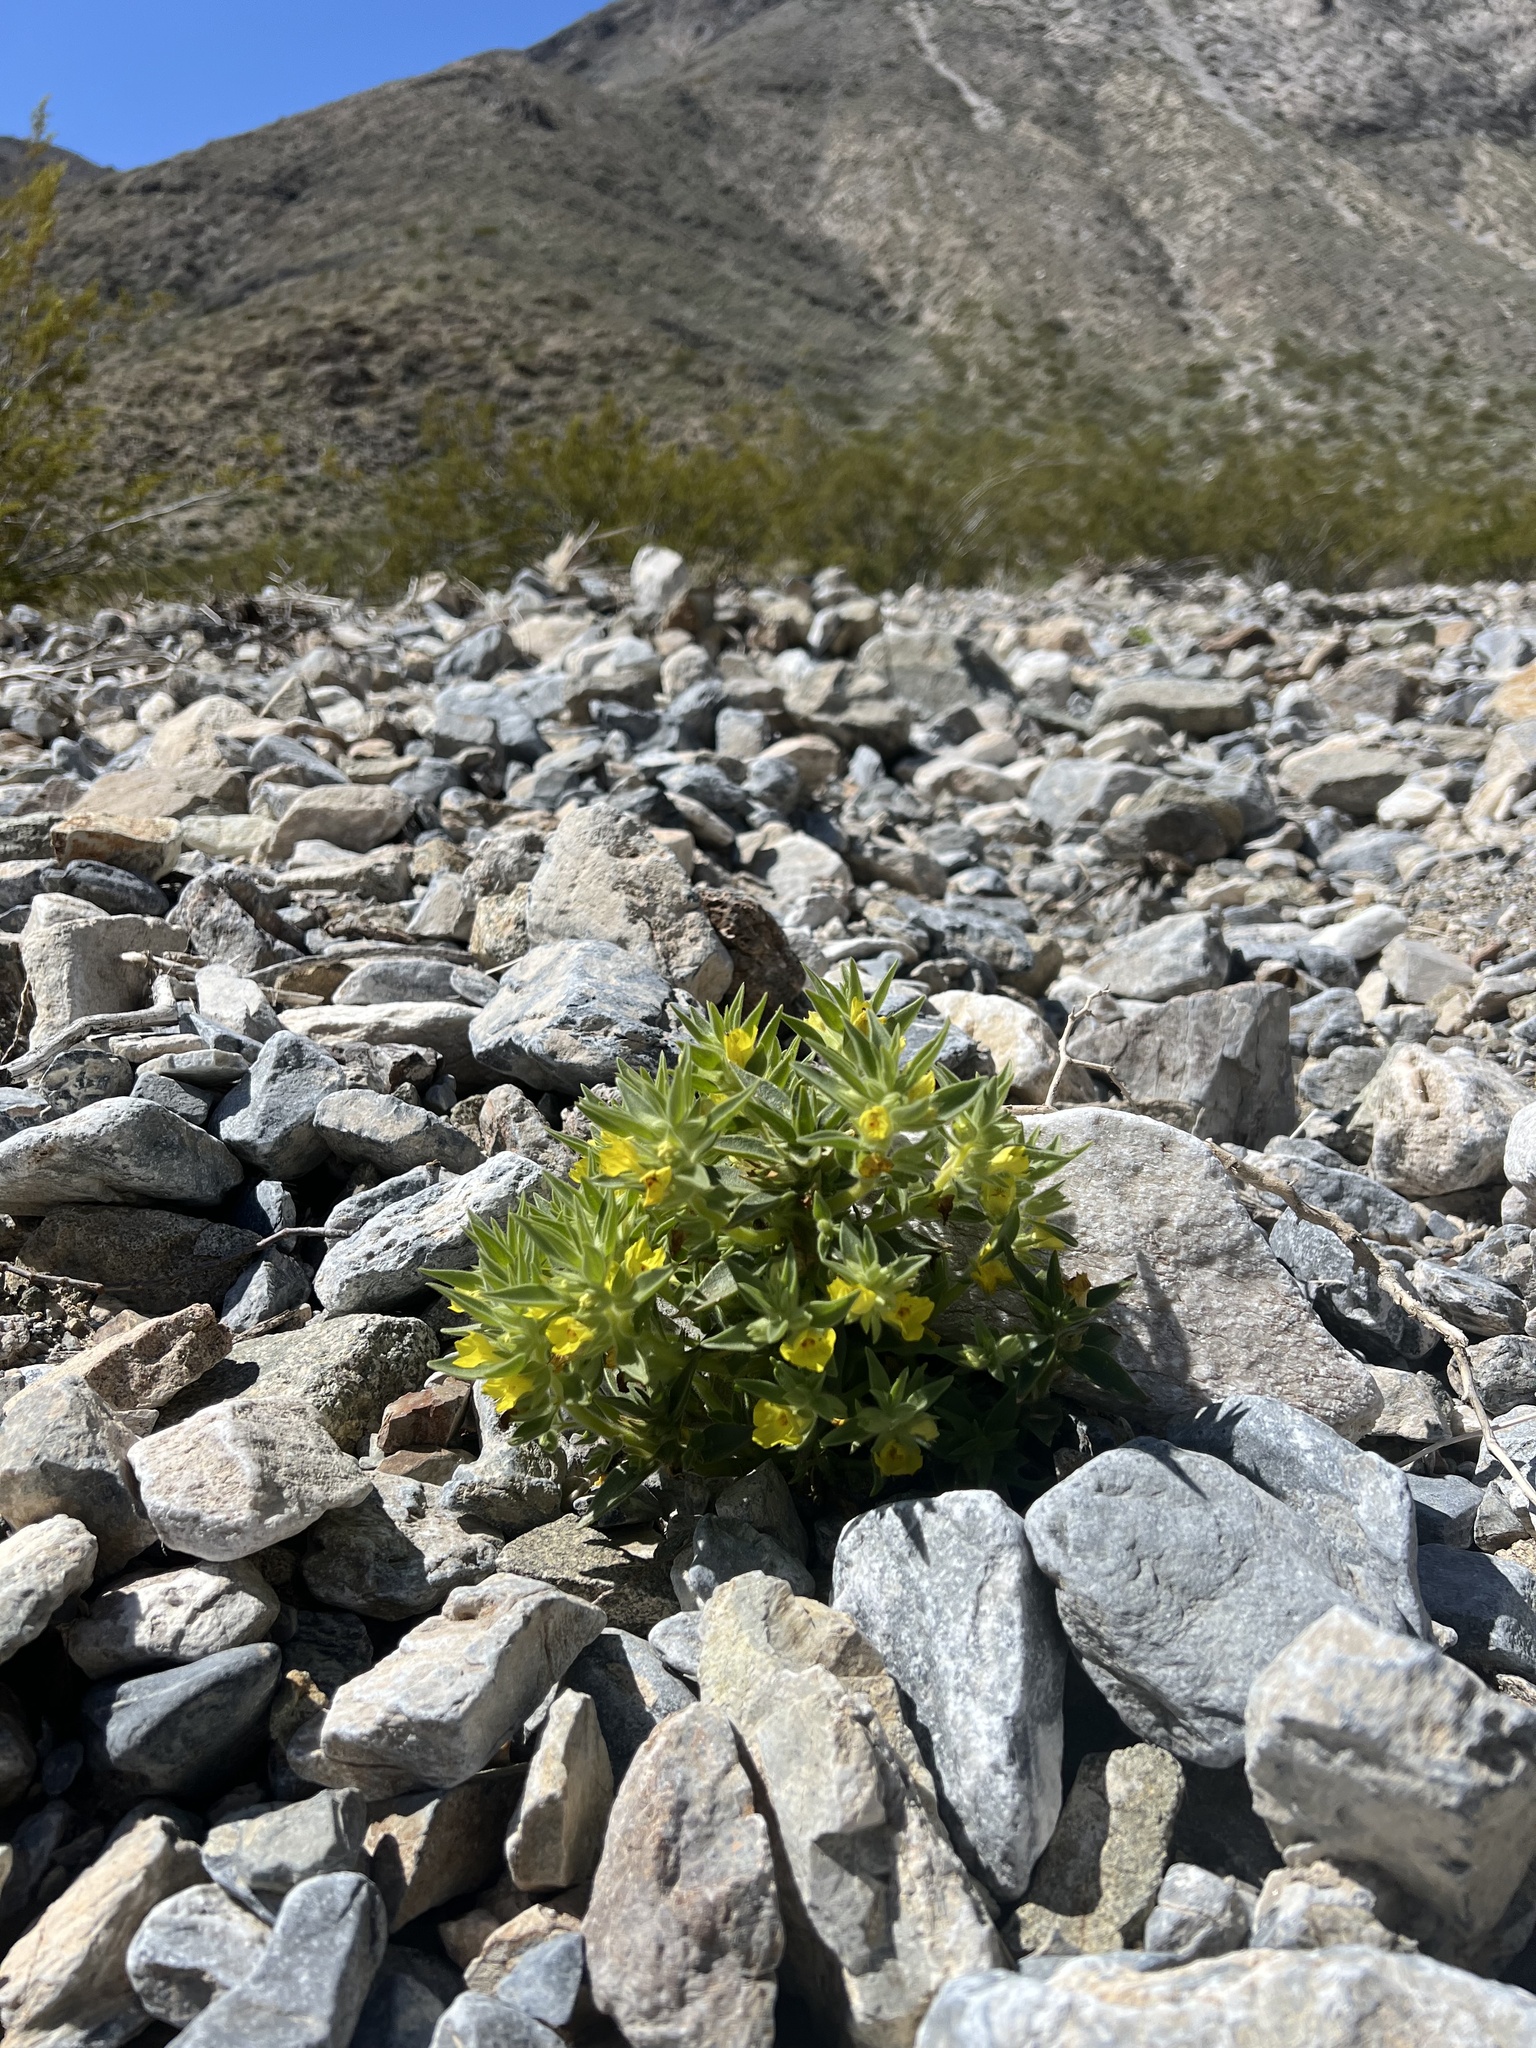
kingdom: Plantae
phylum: Tracheophyta
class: Magnoliopsida
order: Lamiales
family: Plantaginaceae
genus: Mohavea
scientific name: Mohavea breviflora
